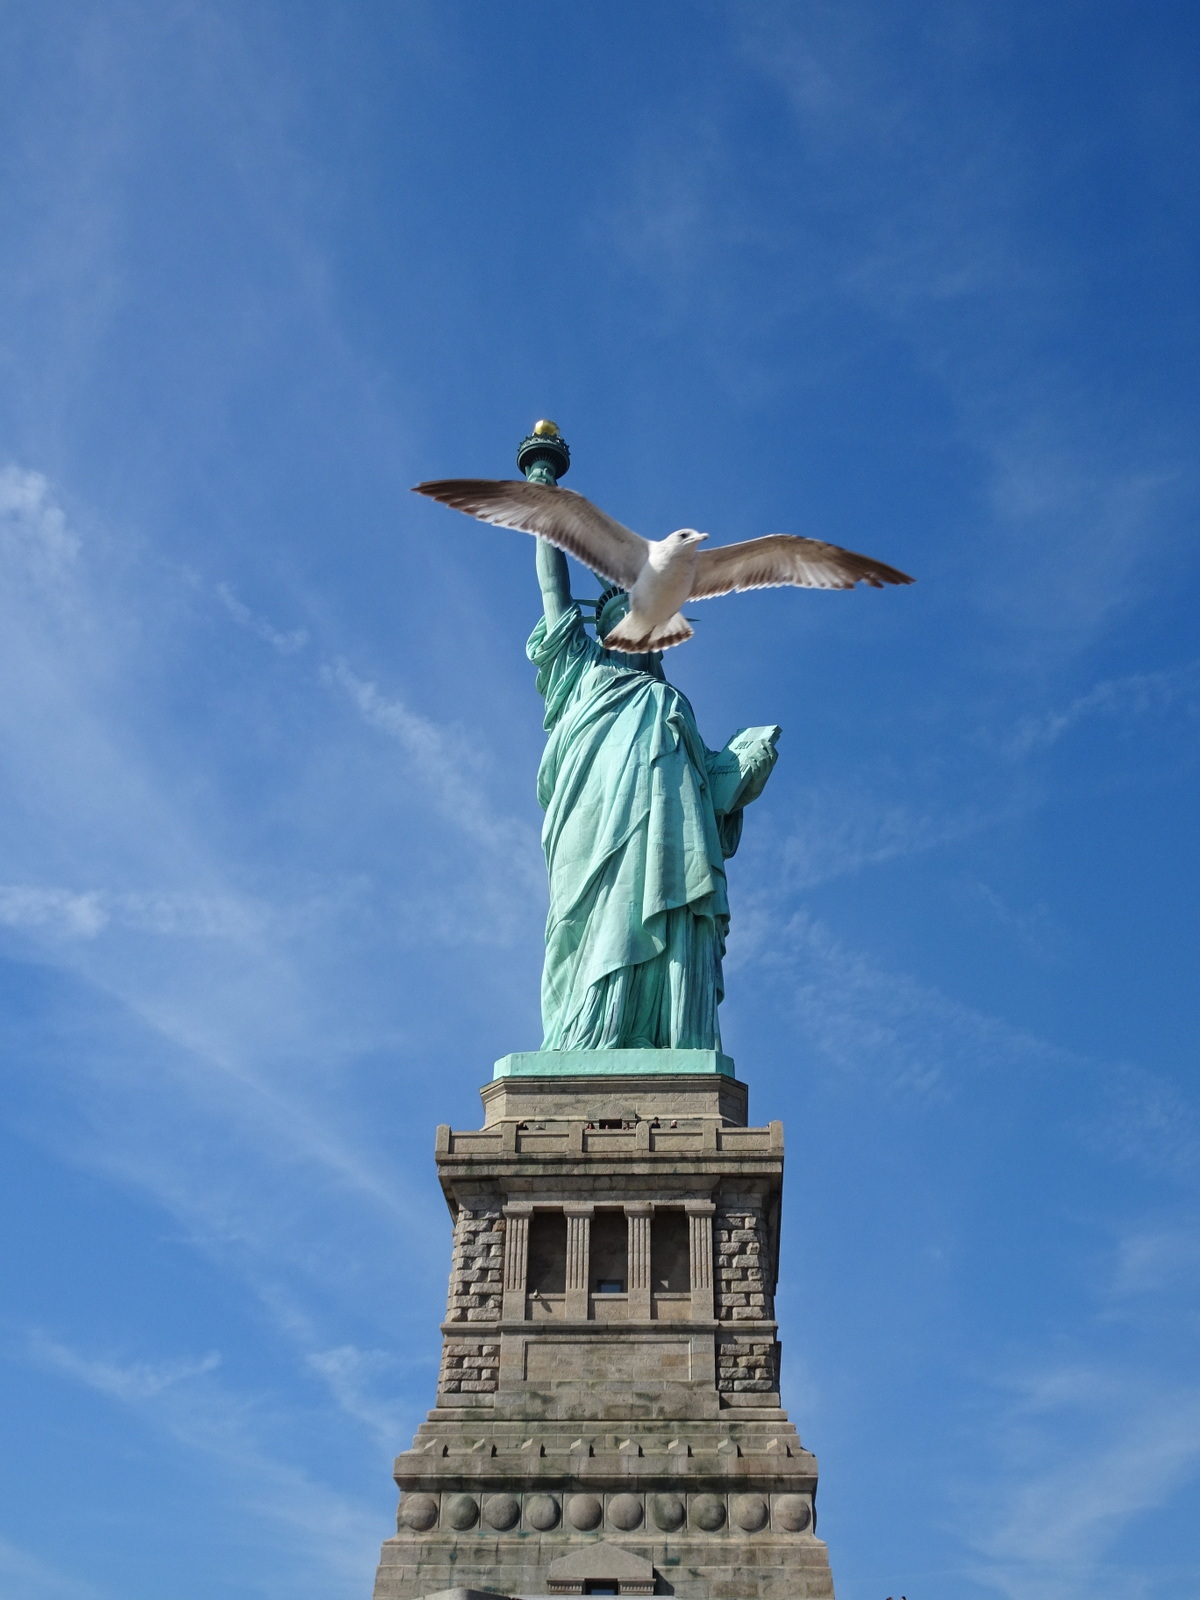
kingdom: Animalia
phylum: Chordata
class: Aves
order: Charadriiformes
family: Laridae
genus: Larus
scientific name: Larus delawarensis
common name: Ring-billed gull
